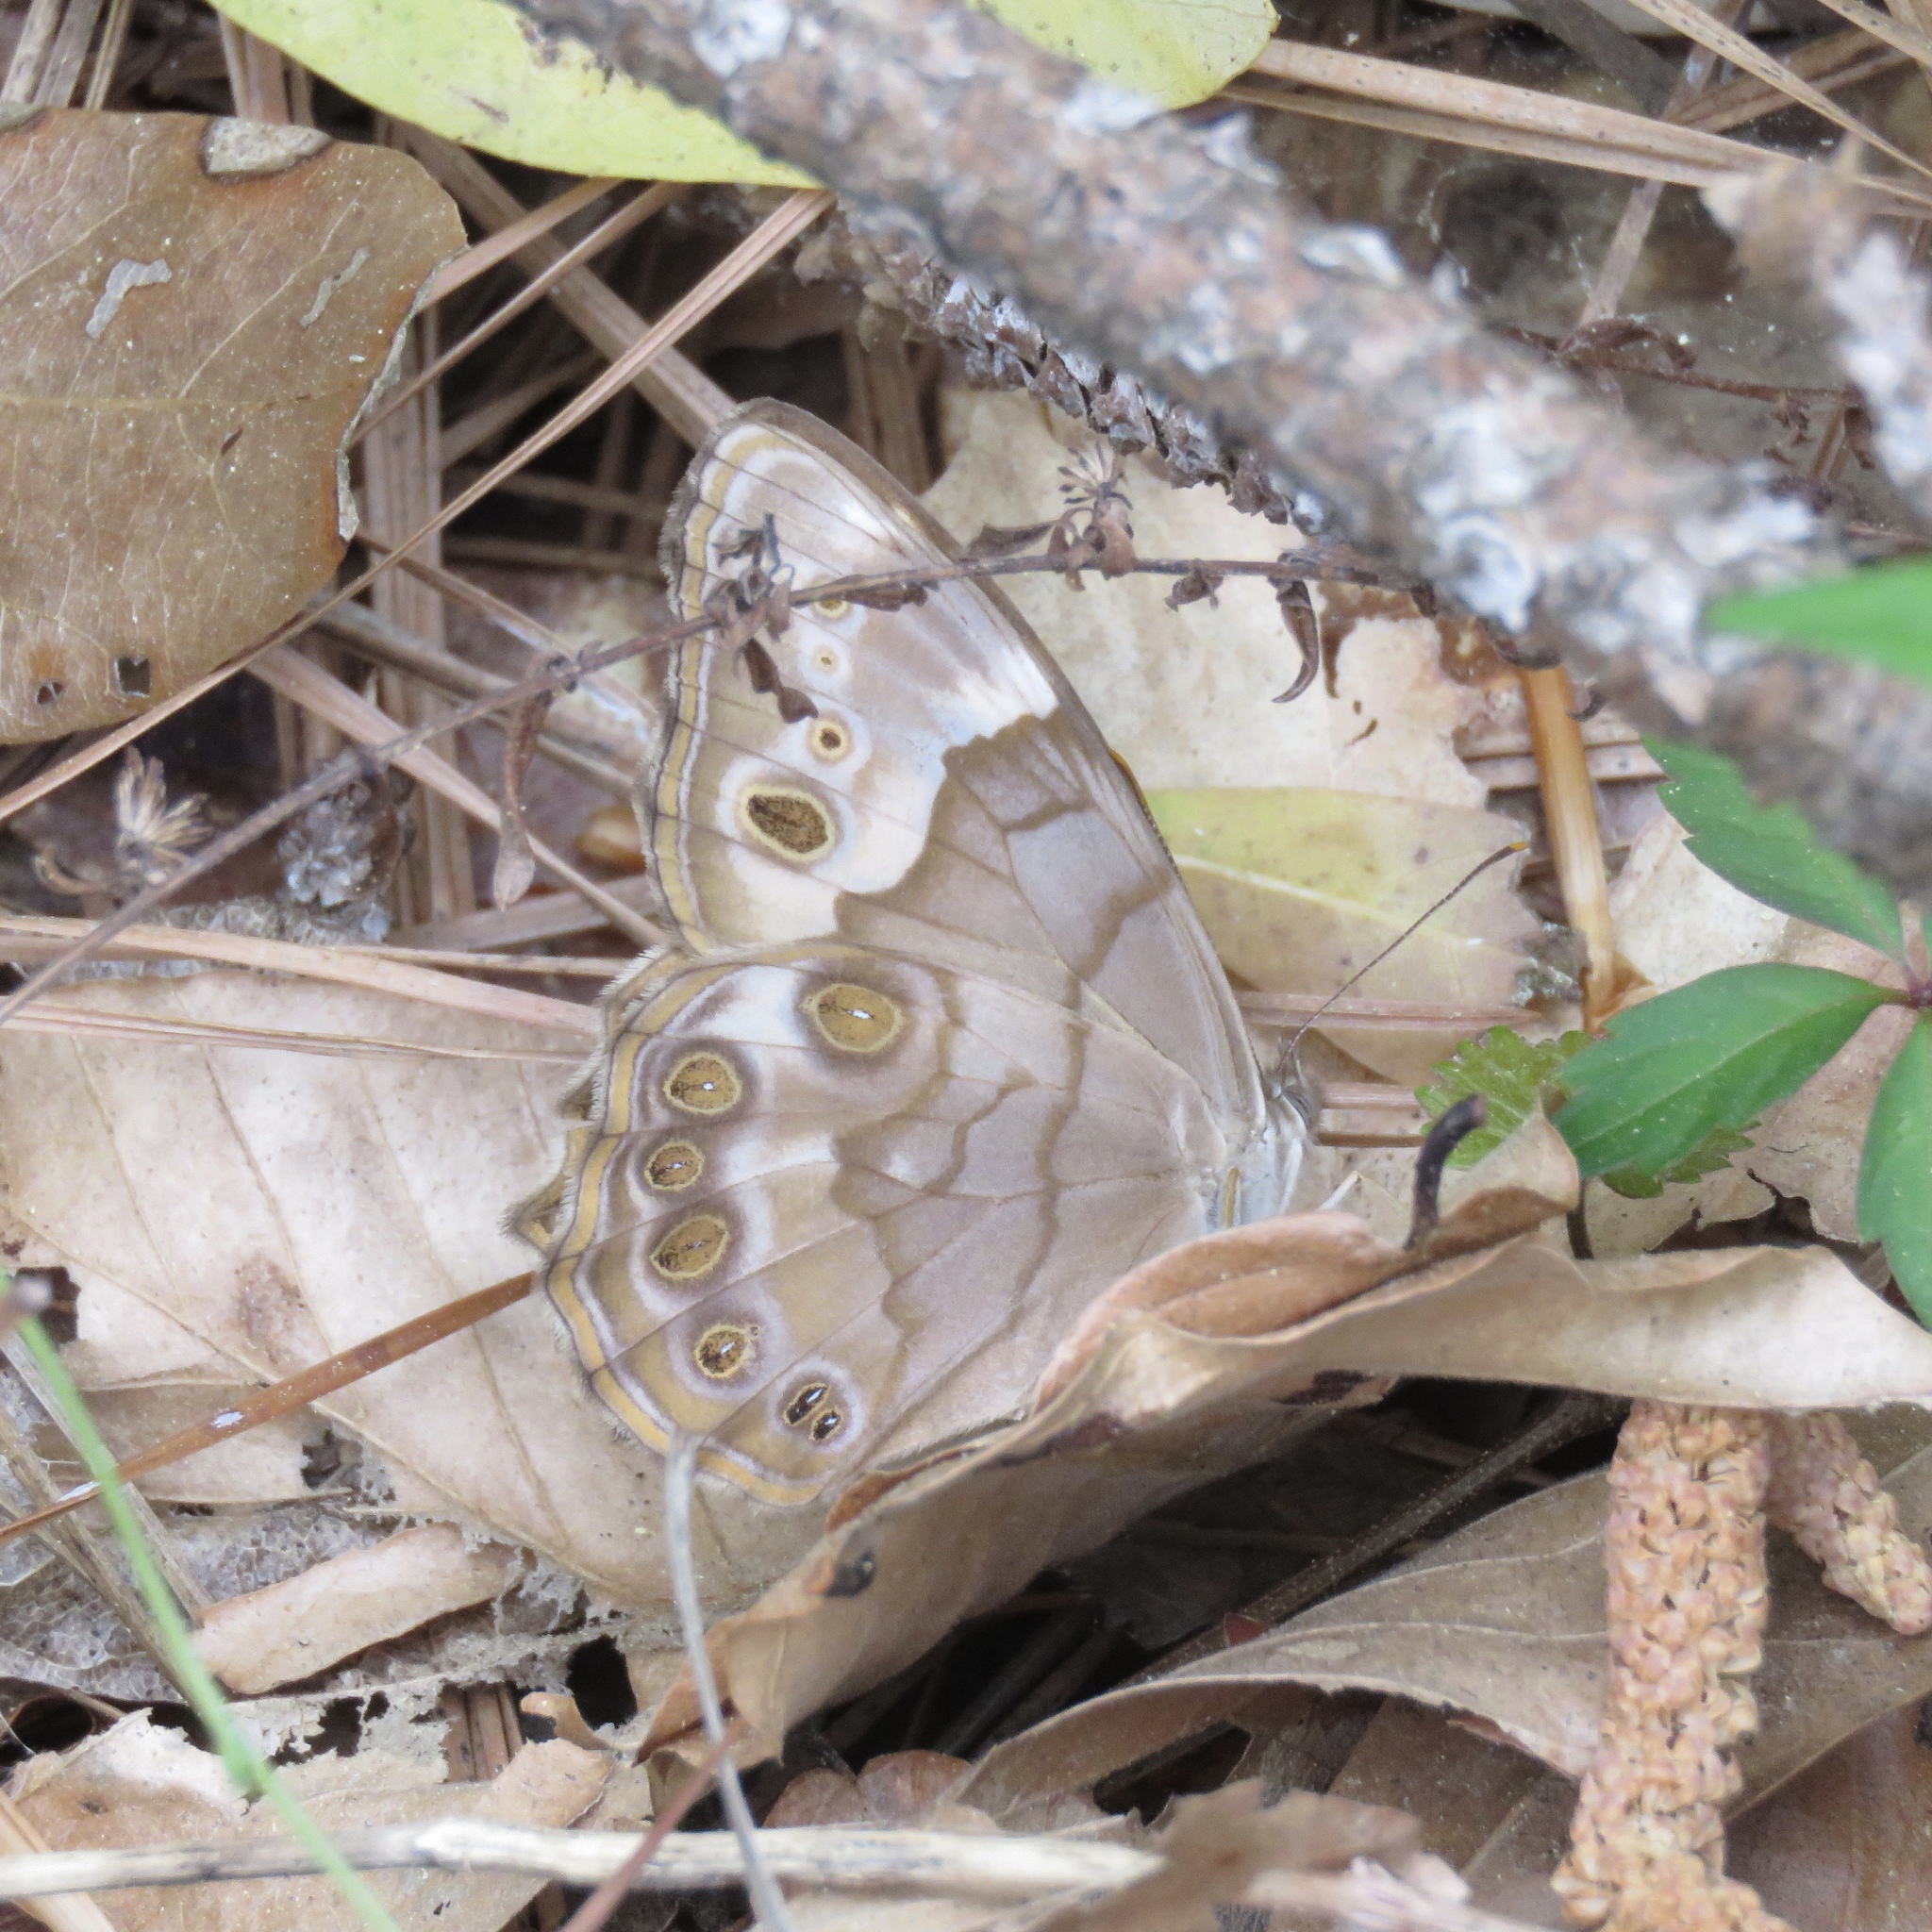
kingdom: Animalia
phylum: Arthropoda
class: Insecta
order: Lepidoptera
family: Nymphalidae
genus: Enodia
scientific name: Enodia portlandia
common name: Southern pearly-eye
